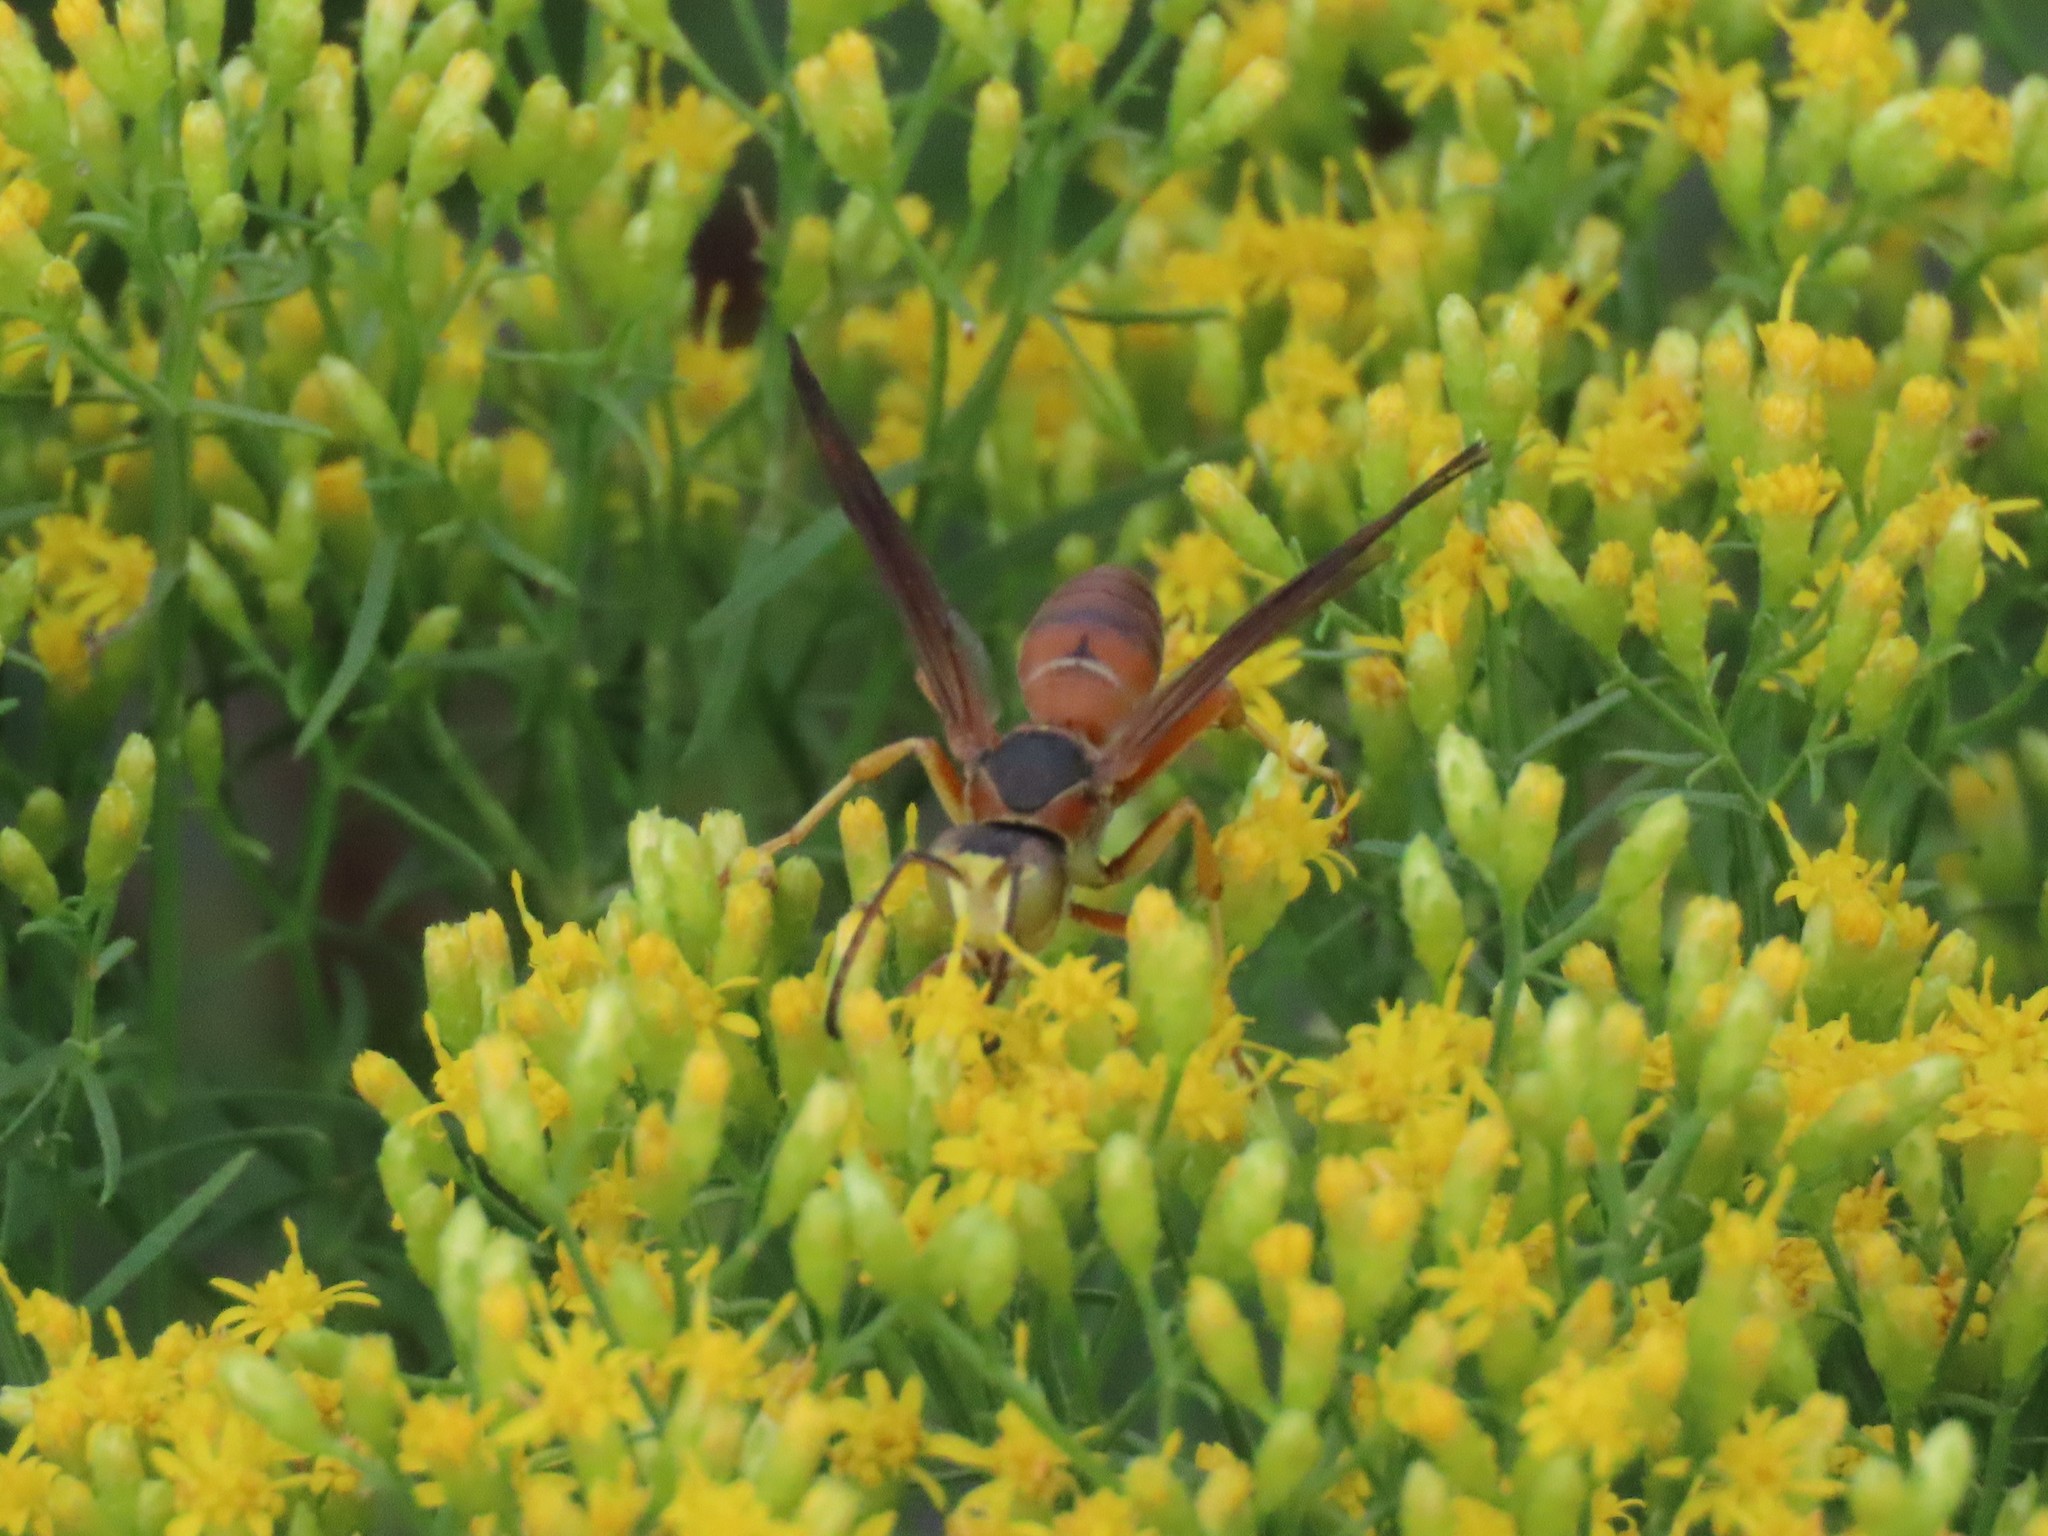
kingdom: Animalia
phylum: Arthropoda
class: Insecta
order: Hymenoptera
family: Eumenidae
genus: Polistes
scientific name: Polistes fuscatus
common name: Dark paper wasp
